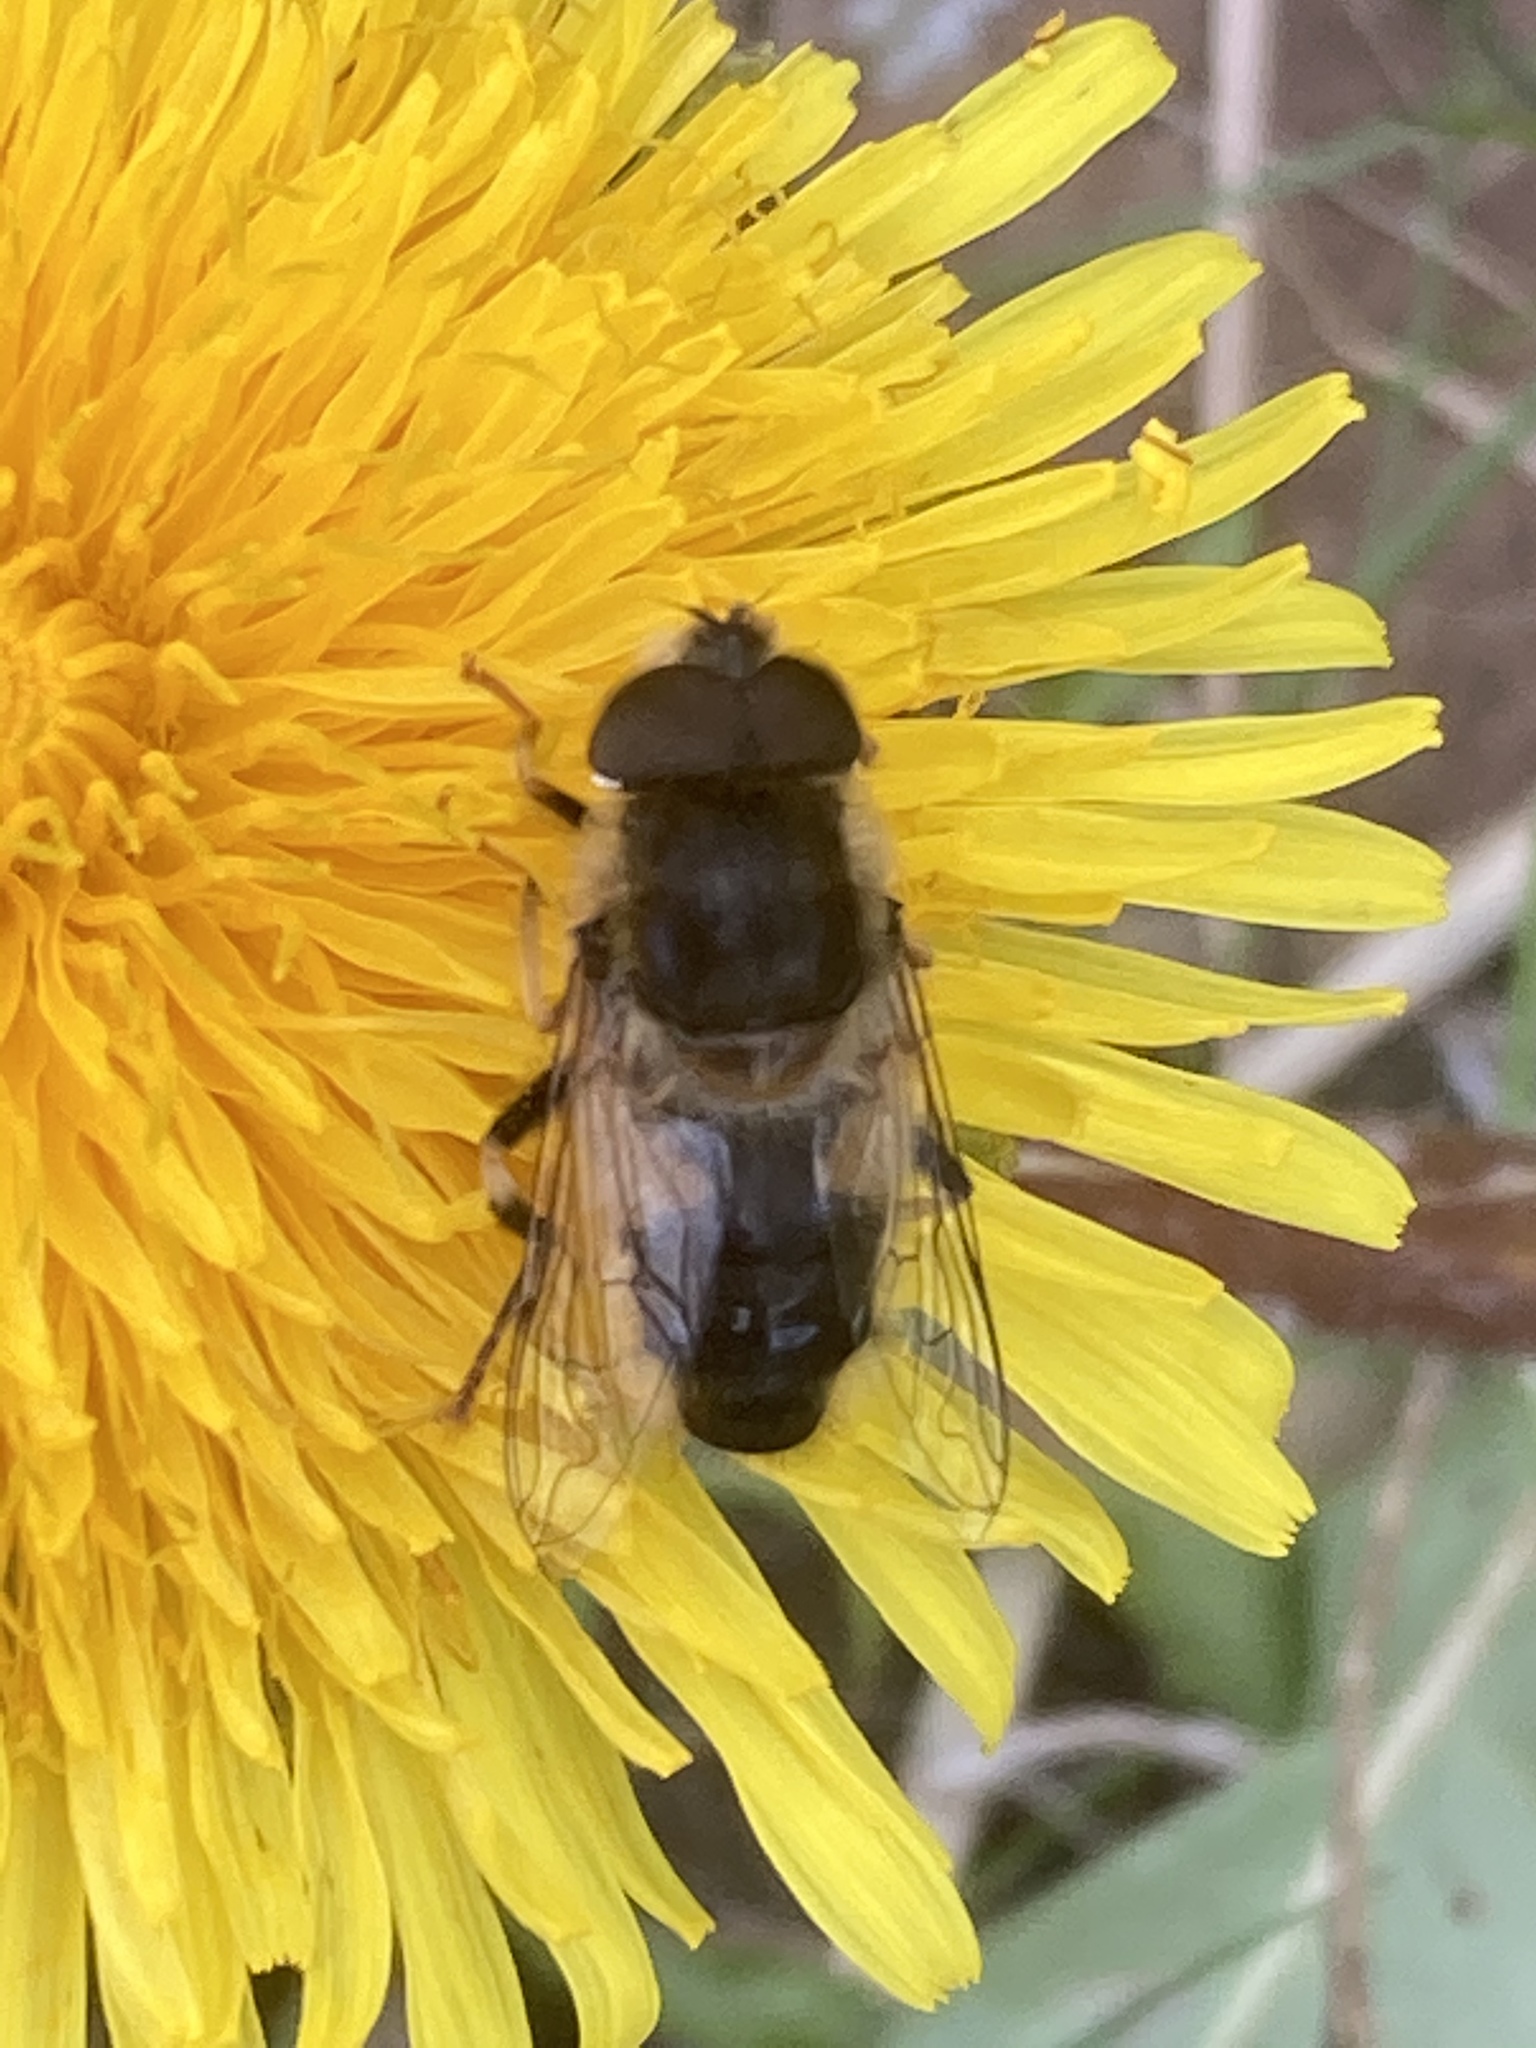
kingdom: Animalia
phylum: Arthropoda
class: Insecta
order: Diptera
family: Syrphidae
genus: Eristalis
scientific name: Eristalis pertinax
